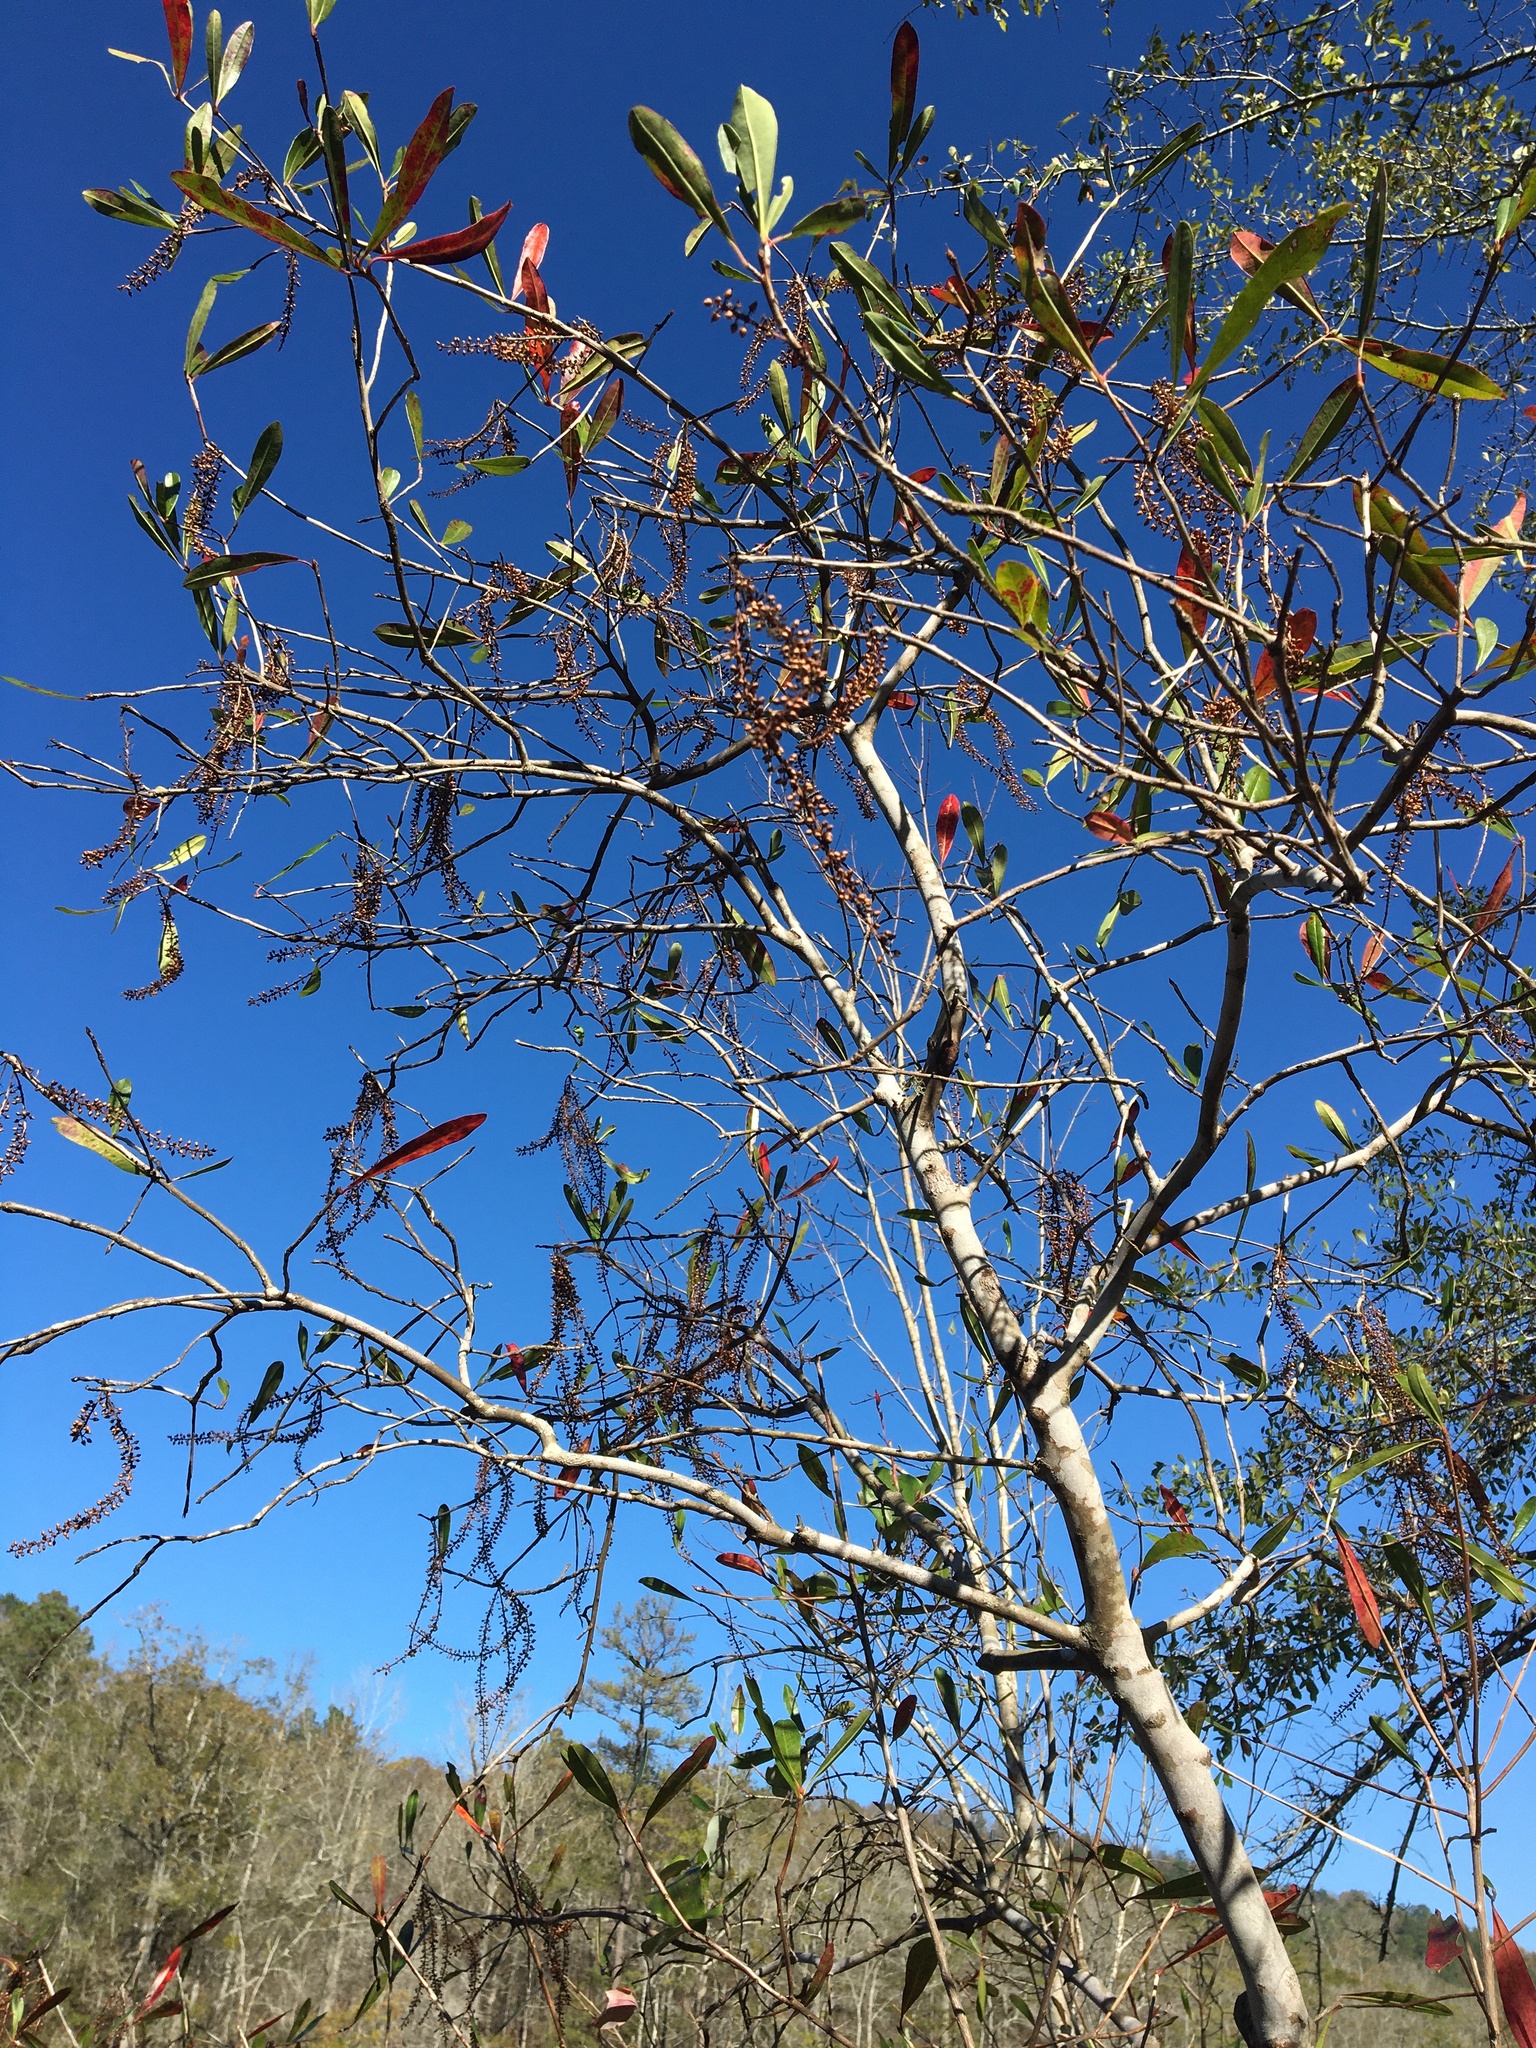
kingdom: Plantae
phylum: Tracheophyta
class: Magnoliopsida
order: Ericales
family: Cyrillaceae
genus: Cyrilla
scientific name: Cyrilla racemiflora
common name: Black titi
